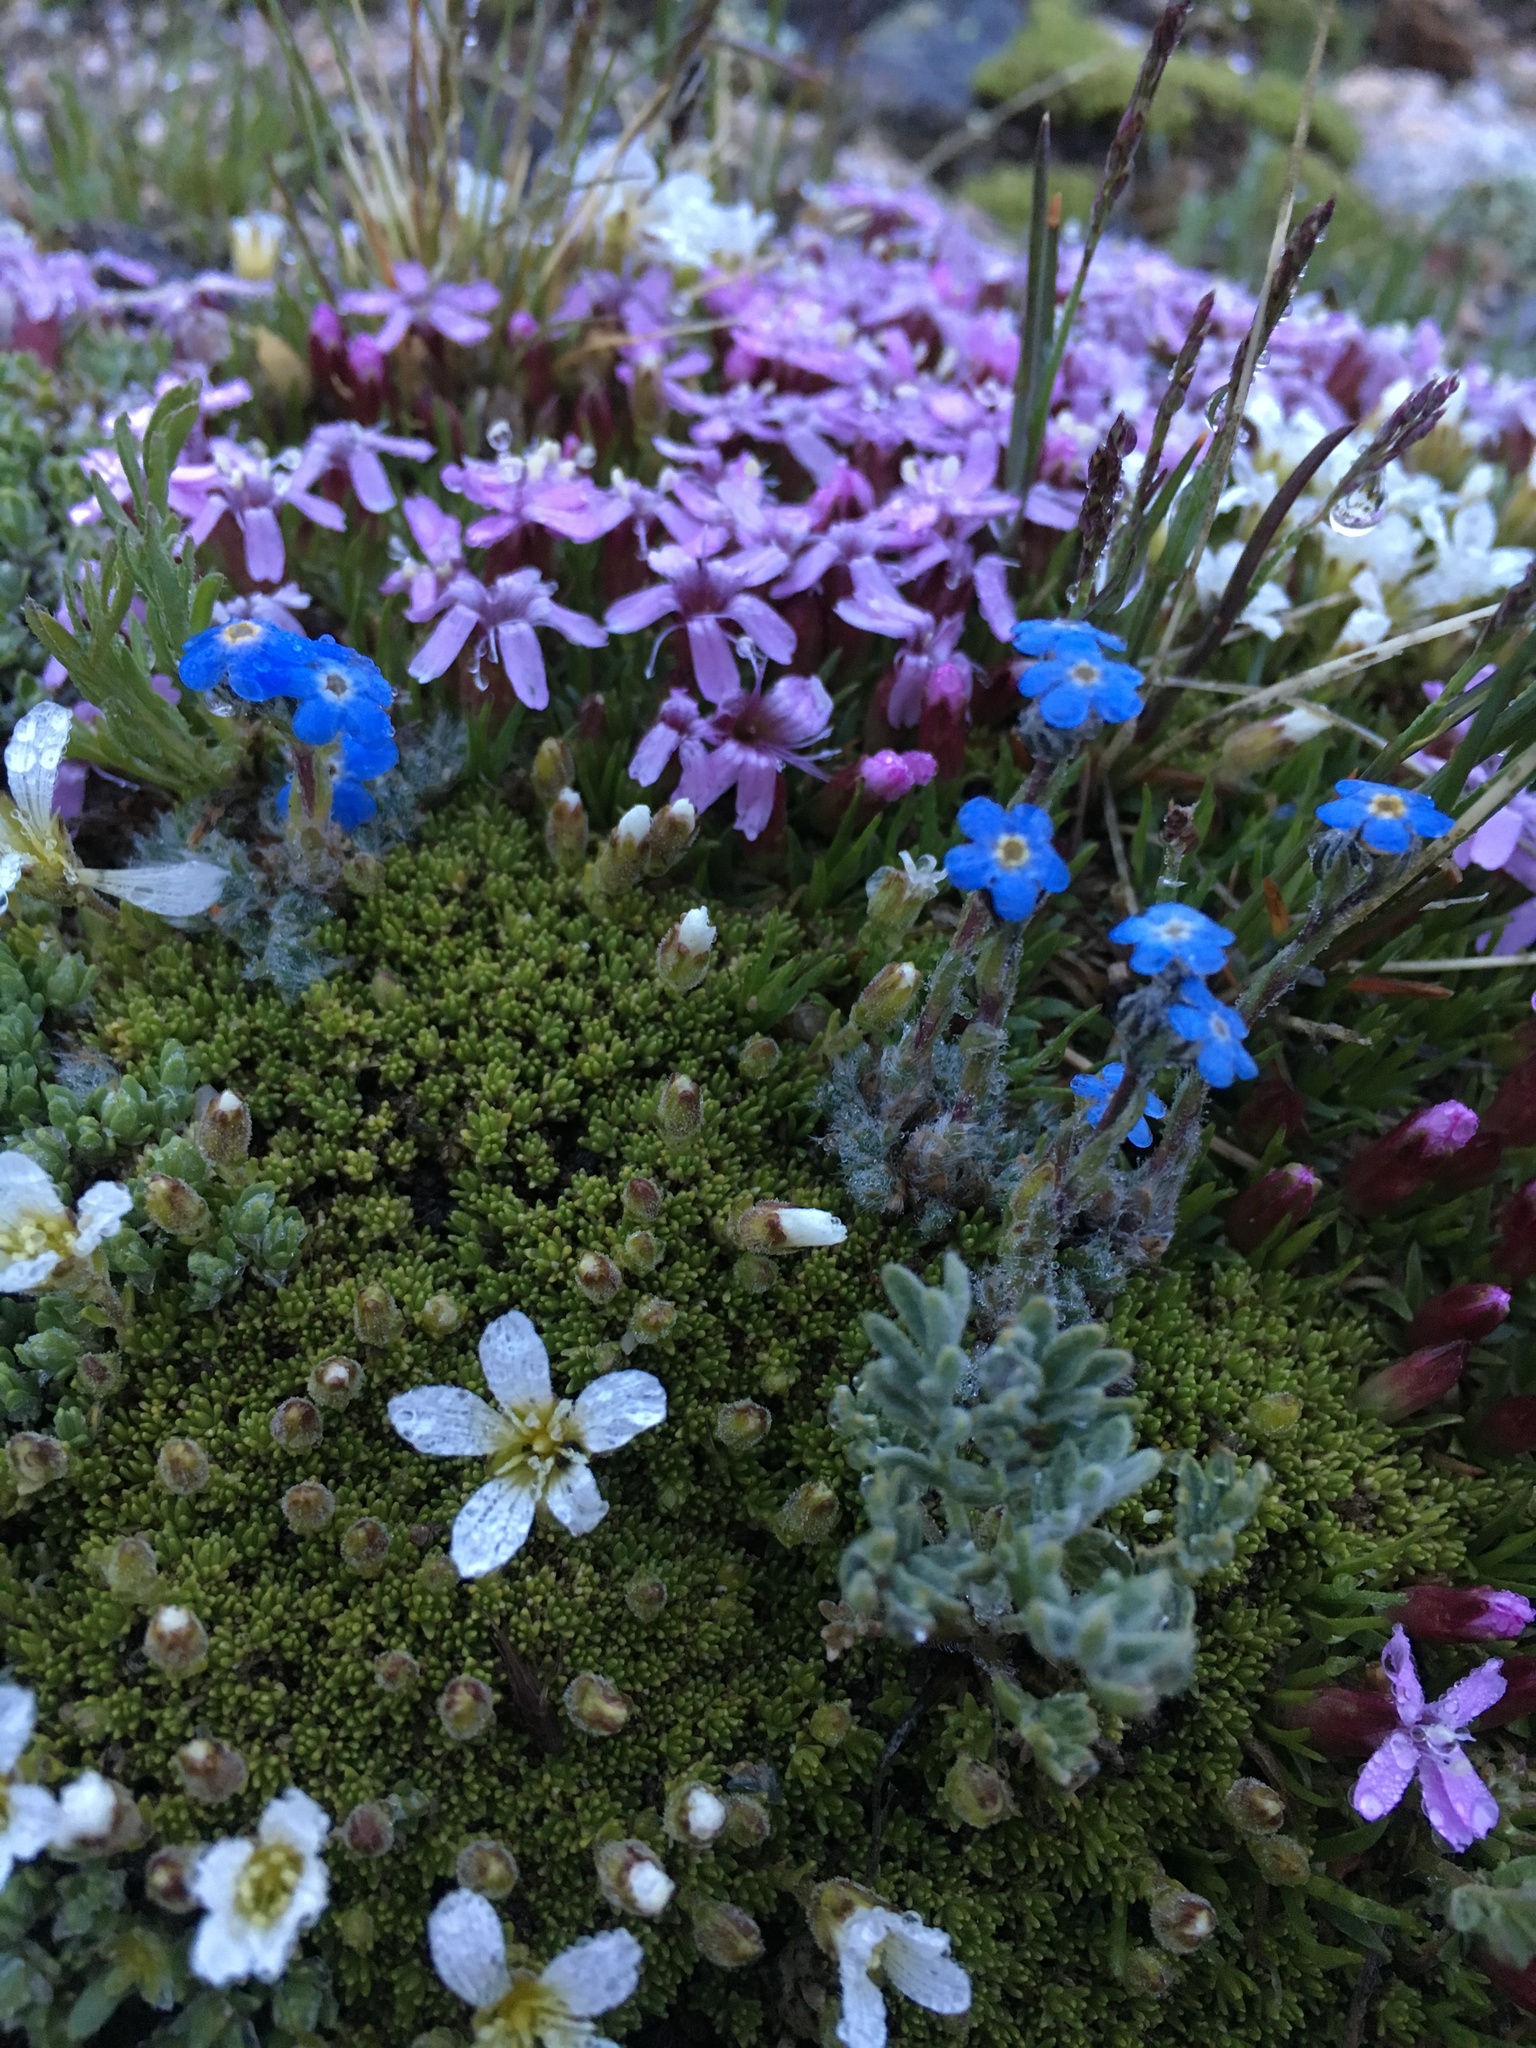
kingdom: Plantae
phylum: Tracheophyta
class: Magnoliopsida
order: Caryophyllales
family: Caryophyllaceae
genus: Silene
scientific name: Silene acaulis
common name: Moss campion
